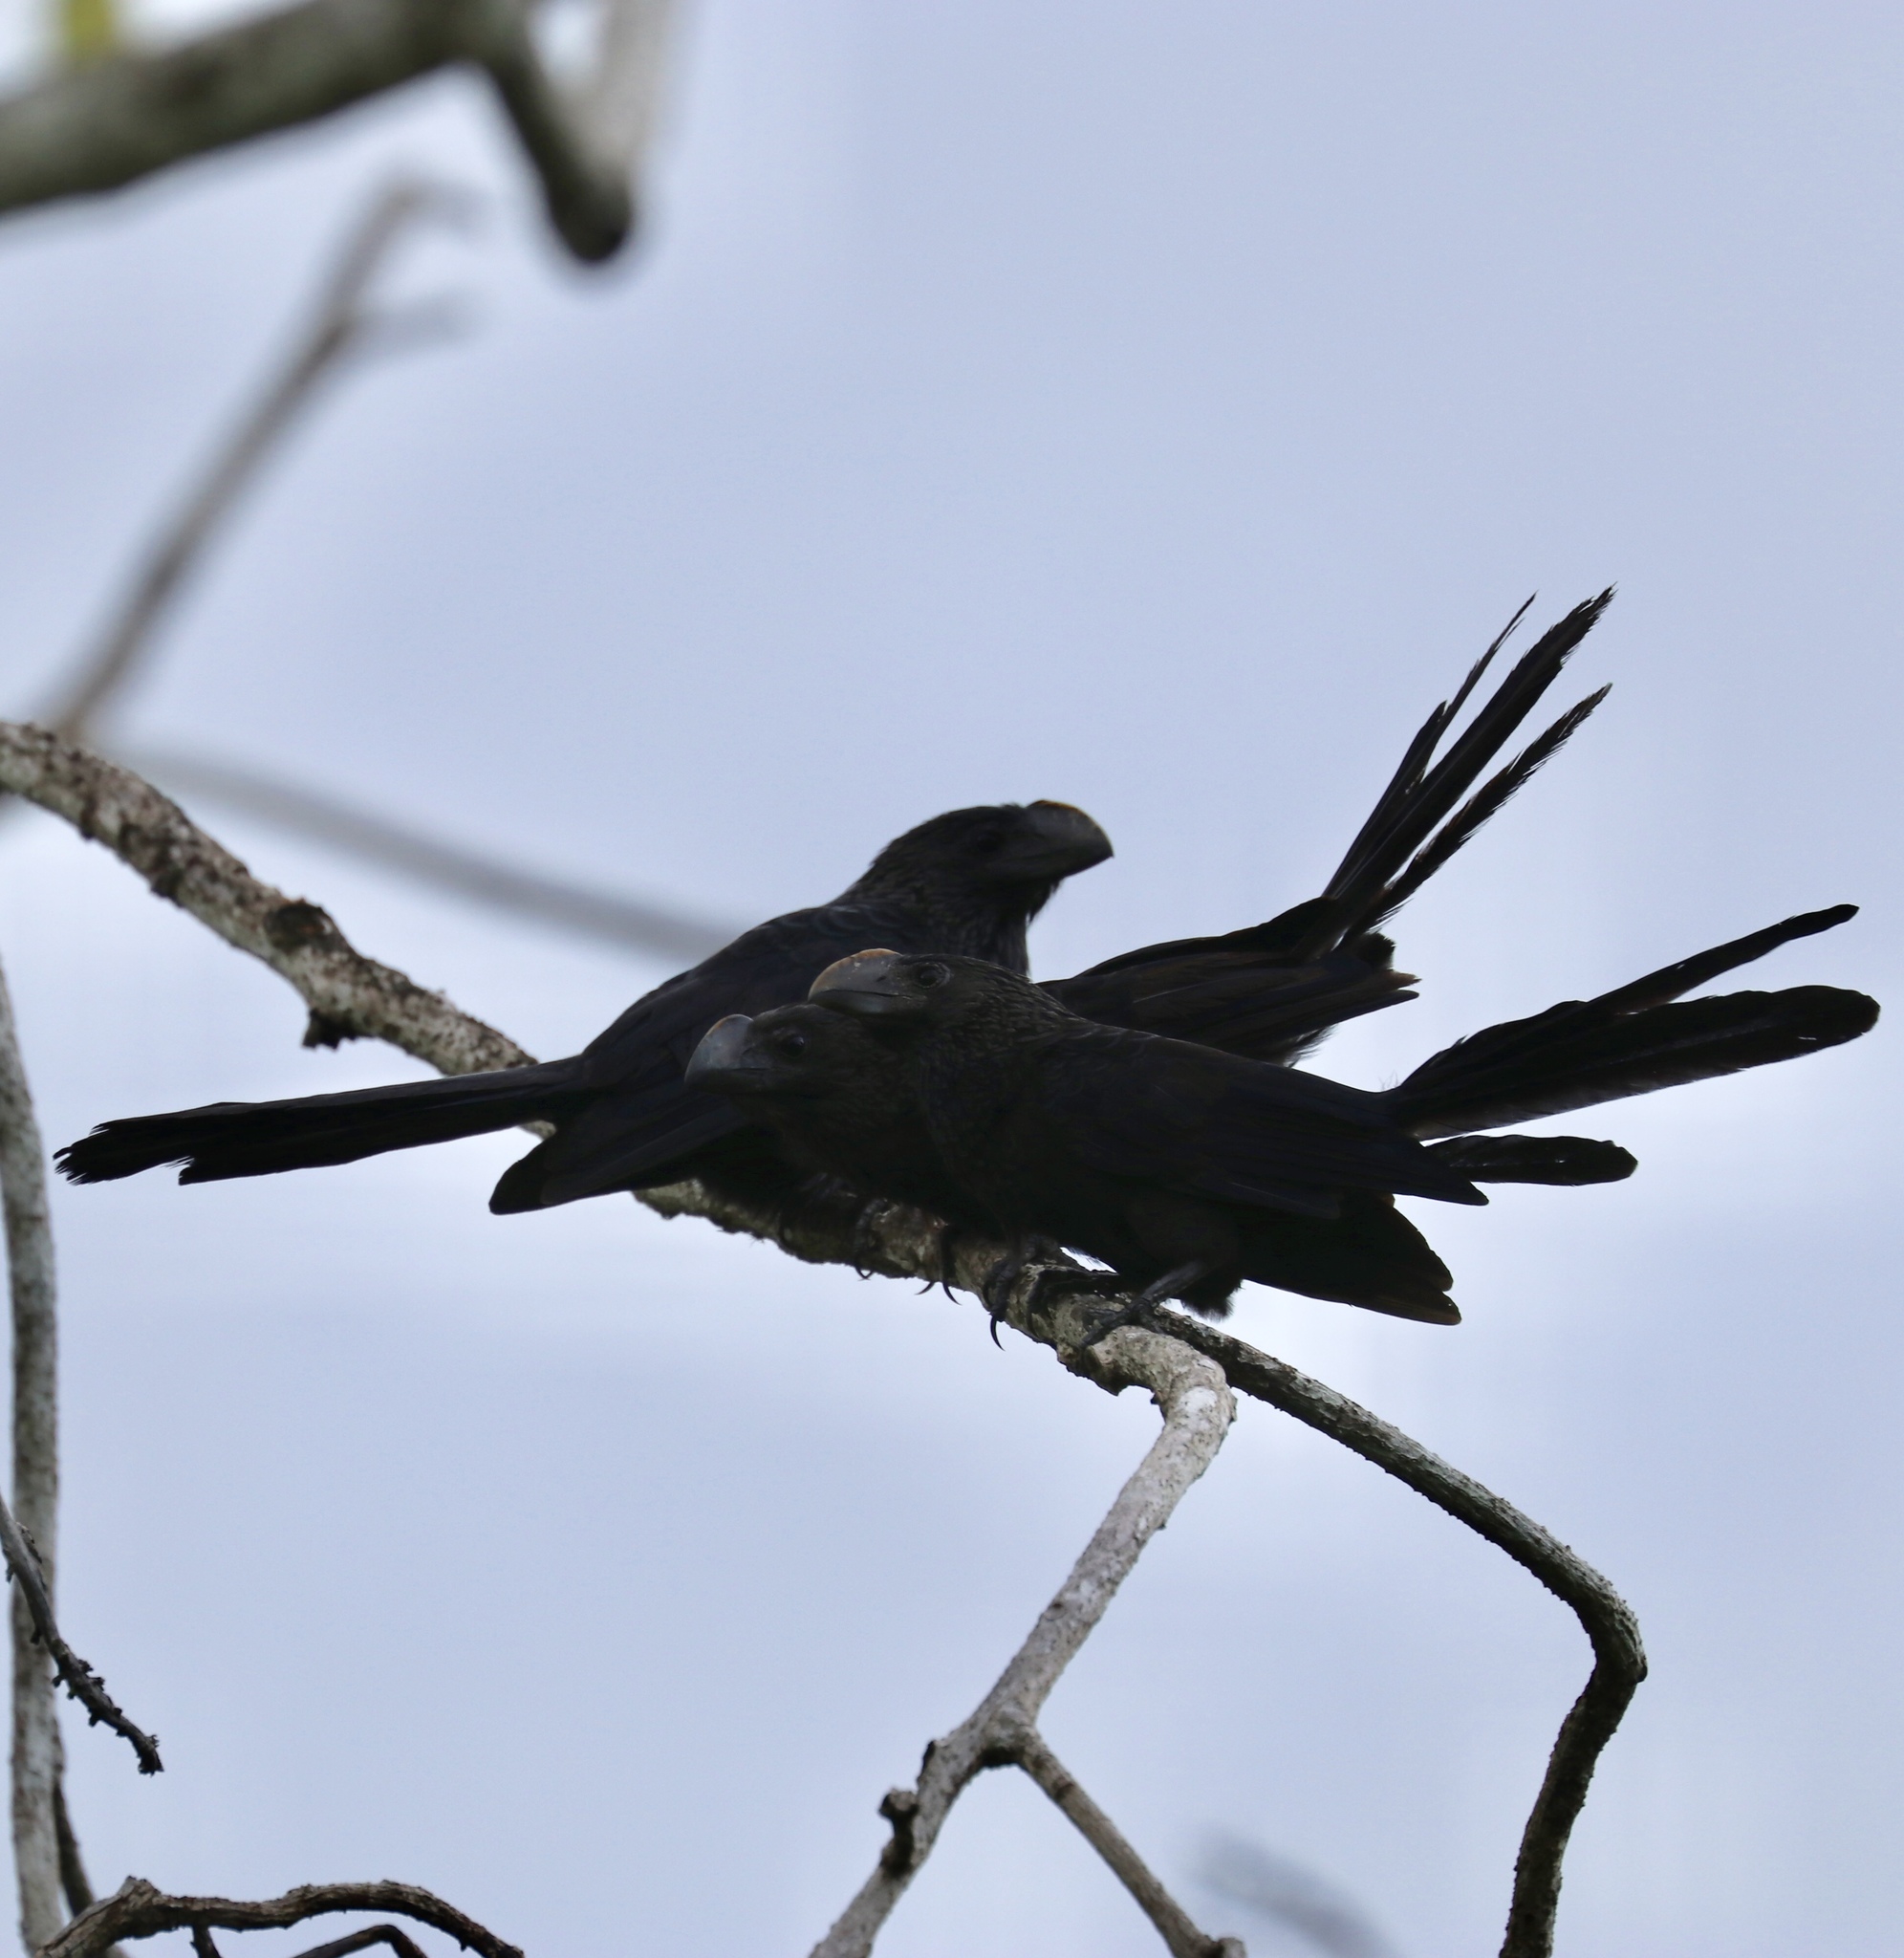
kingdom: Animalia
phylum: Chordata
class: Aves
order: Cuculiformes
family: Cuculidae
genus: Crotophaga
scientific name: Crotophaga ani
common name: Smooth-billed ani
